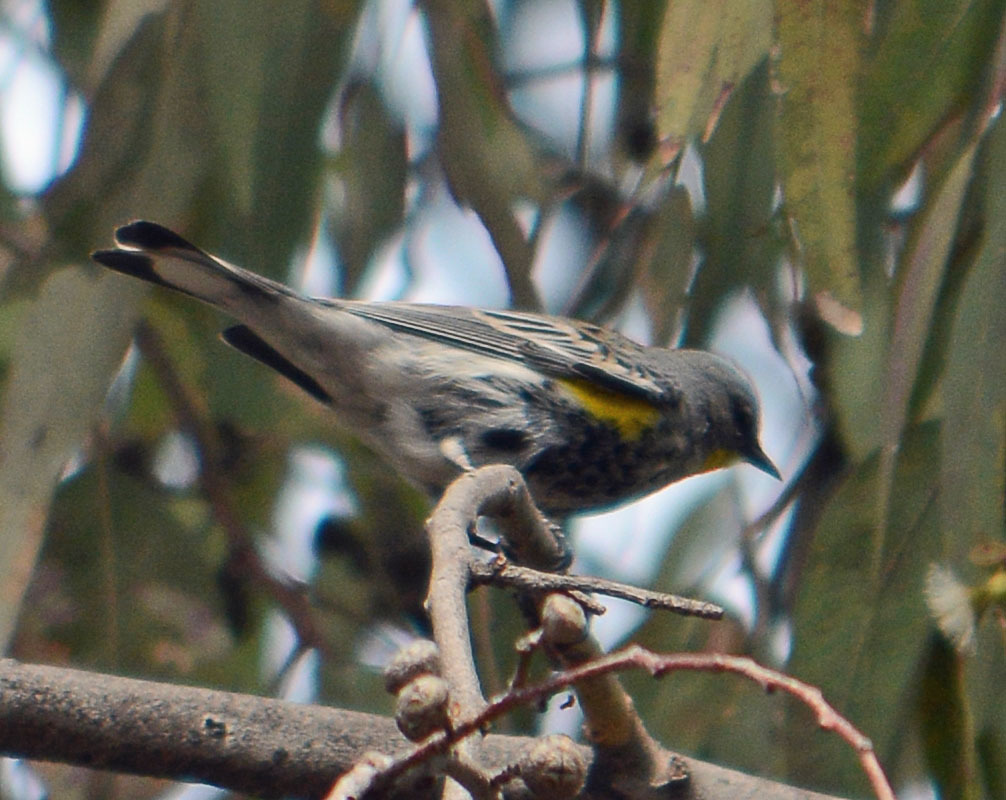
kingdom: Animalia
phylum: Chordata
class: Aves
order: Passeriformes
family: Parulidae
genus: Setophaga
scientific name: Setophaga coronata
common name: Myrtle warbler
